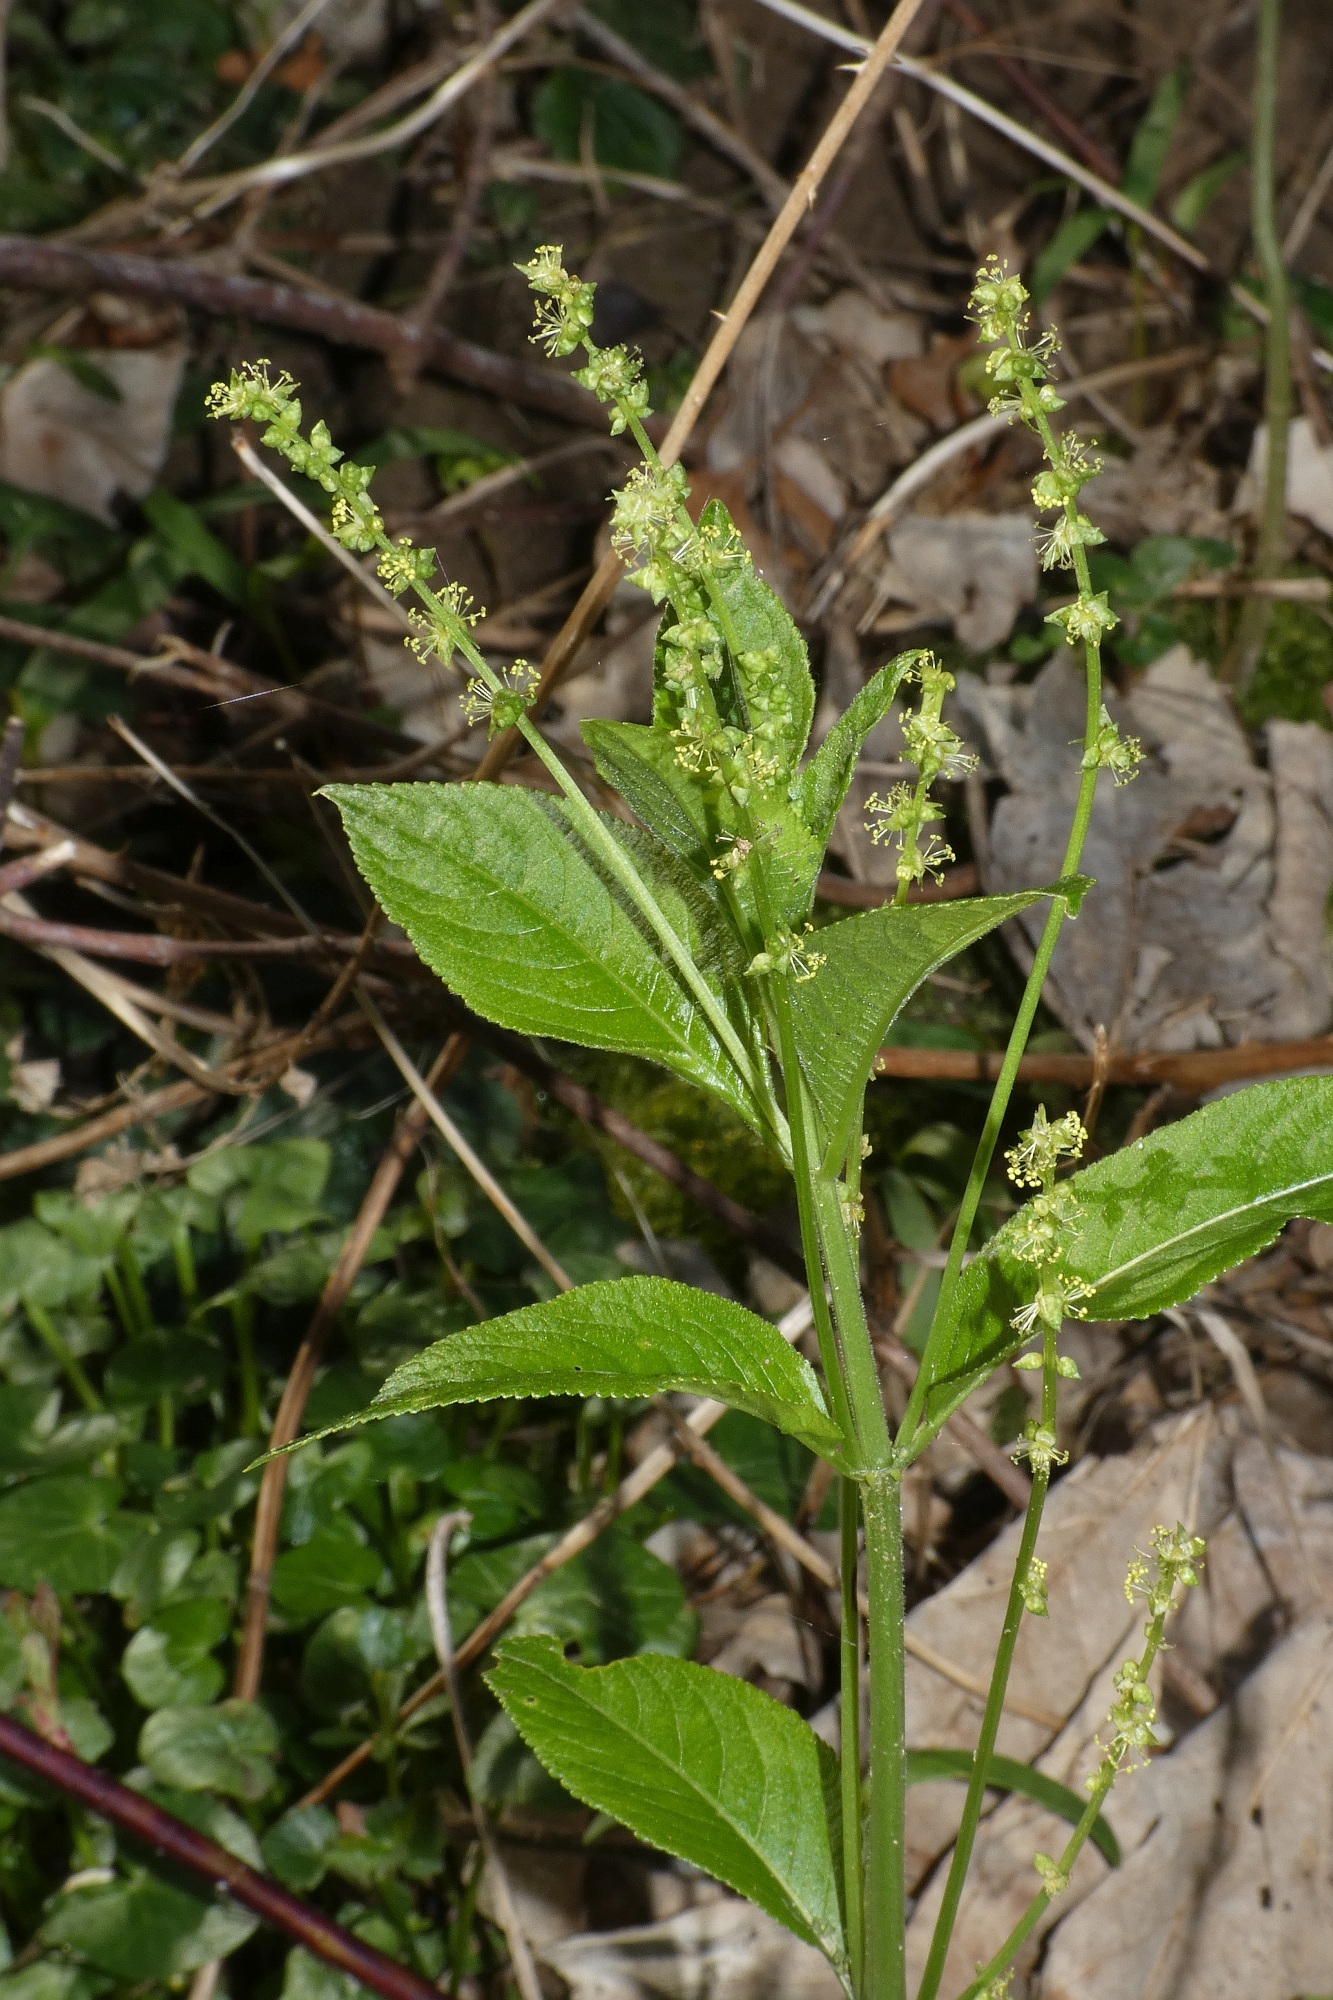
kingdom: Plantae
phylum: Tracheophyta
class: Magnoliopsida
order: Malpighiales
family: Euphorbiaceae
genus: Mercurialis
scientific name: Mercurialis perennis
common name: Dog mercury
